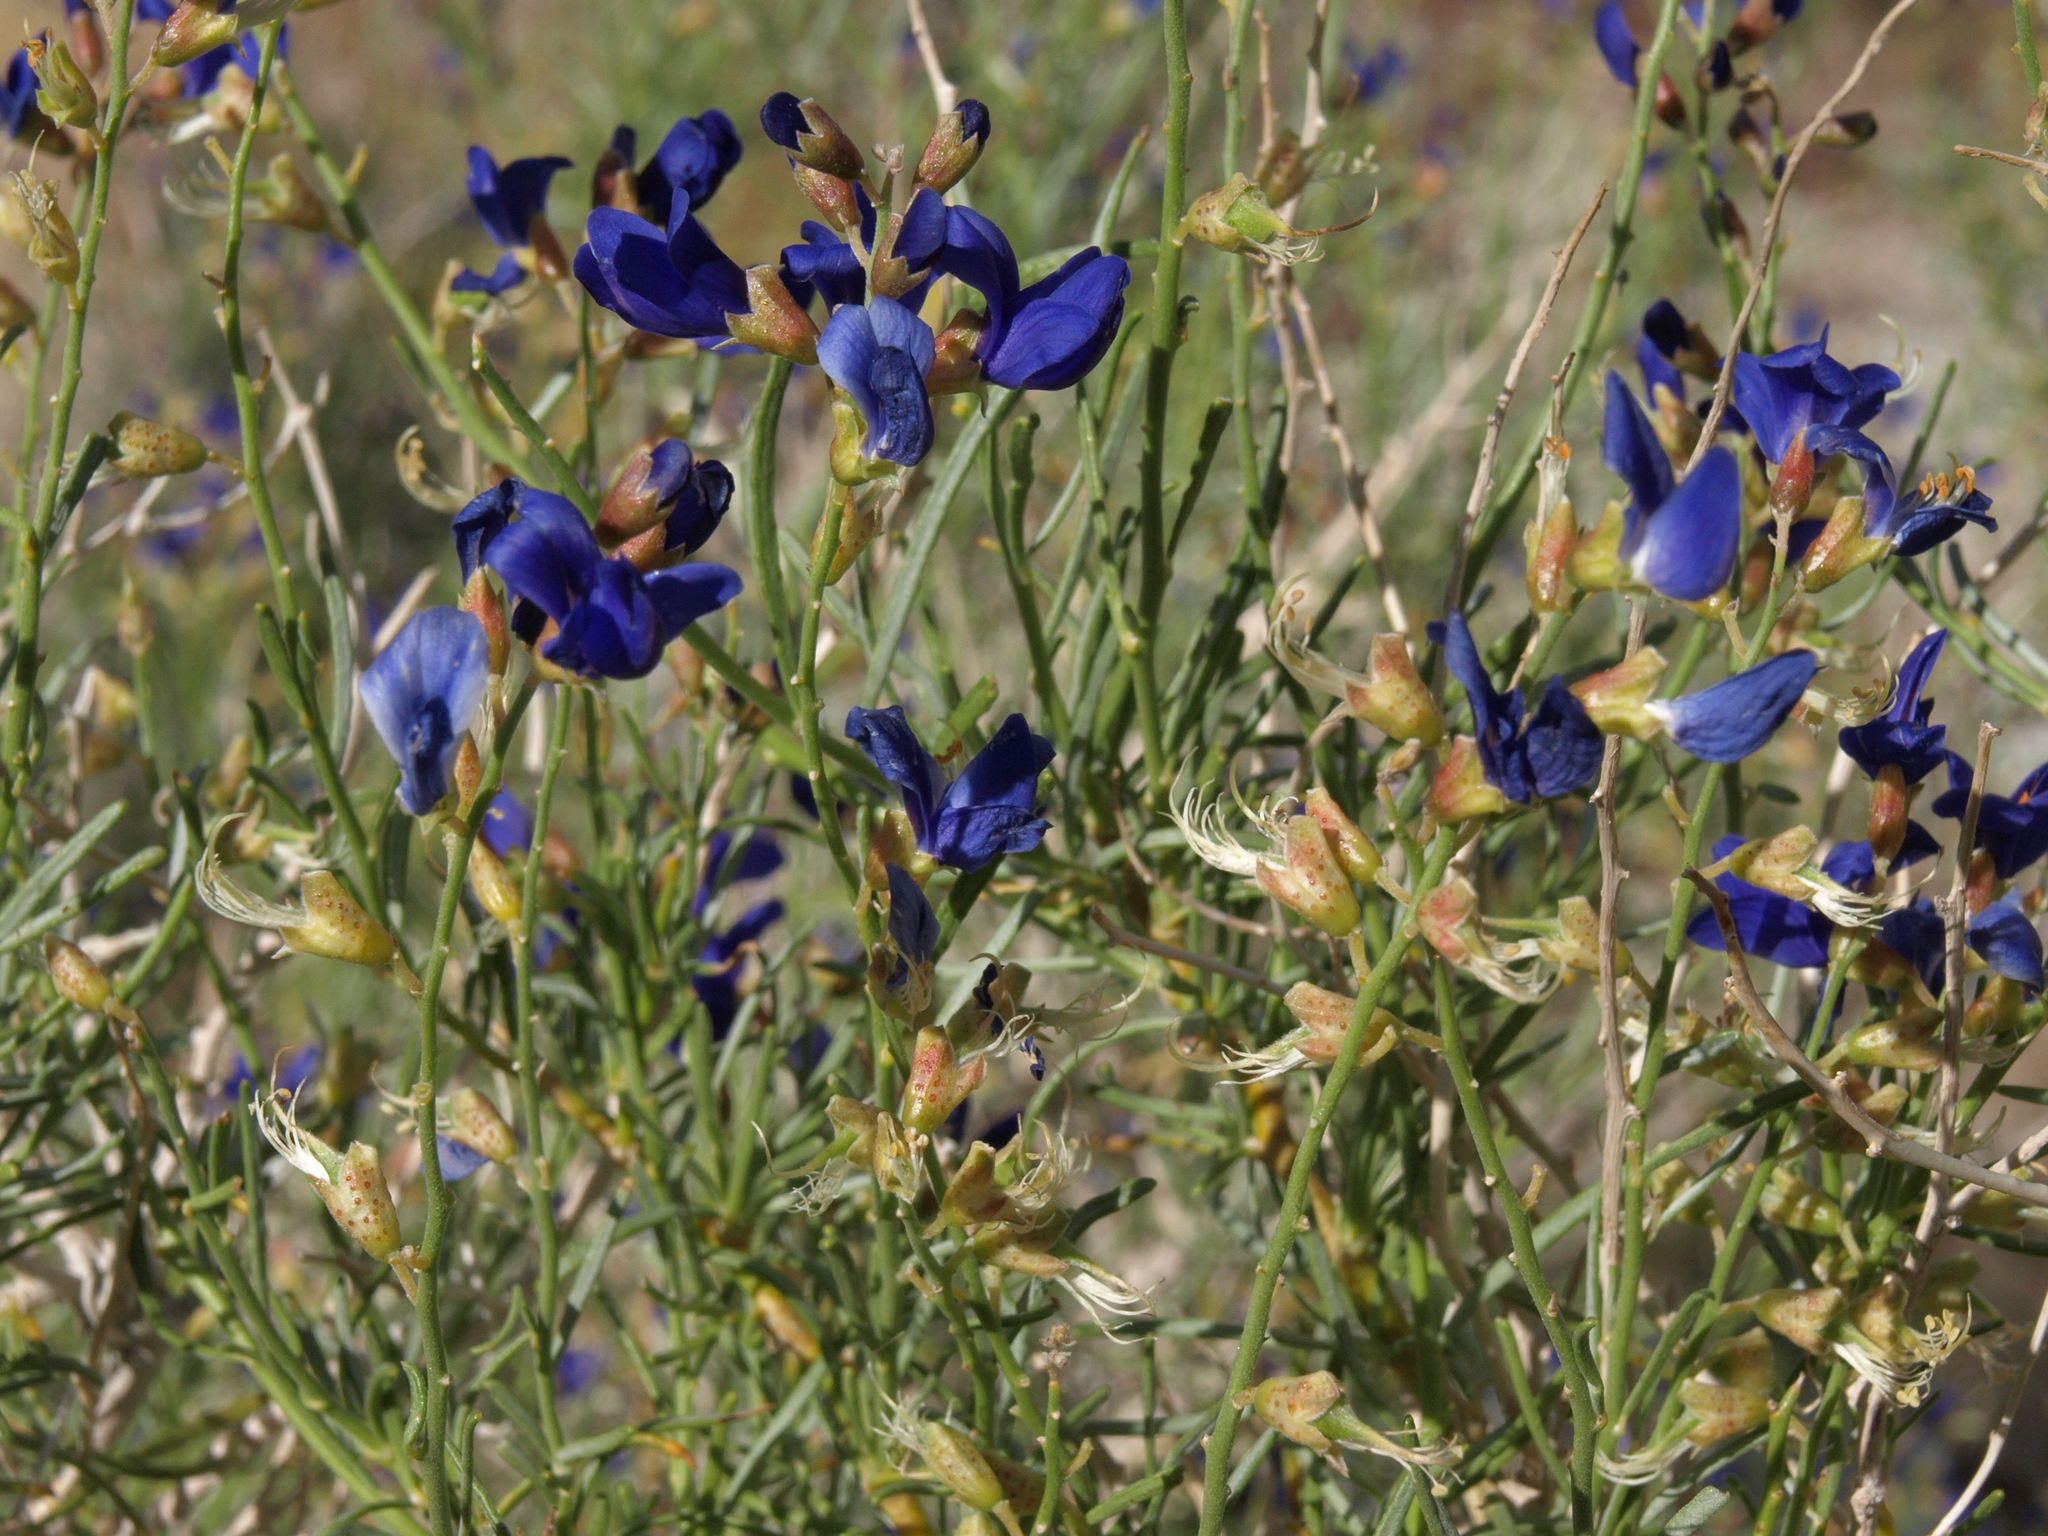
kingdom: Plantae
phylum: Tracheophyta
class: Magnoliopsida
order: Fabales
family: Fabaceae
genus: Psorothamnus
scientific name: Psorothamnus schottii
